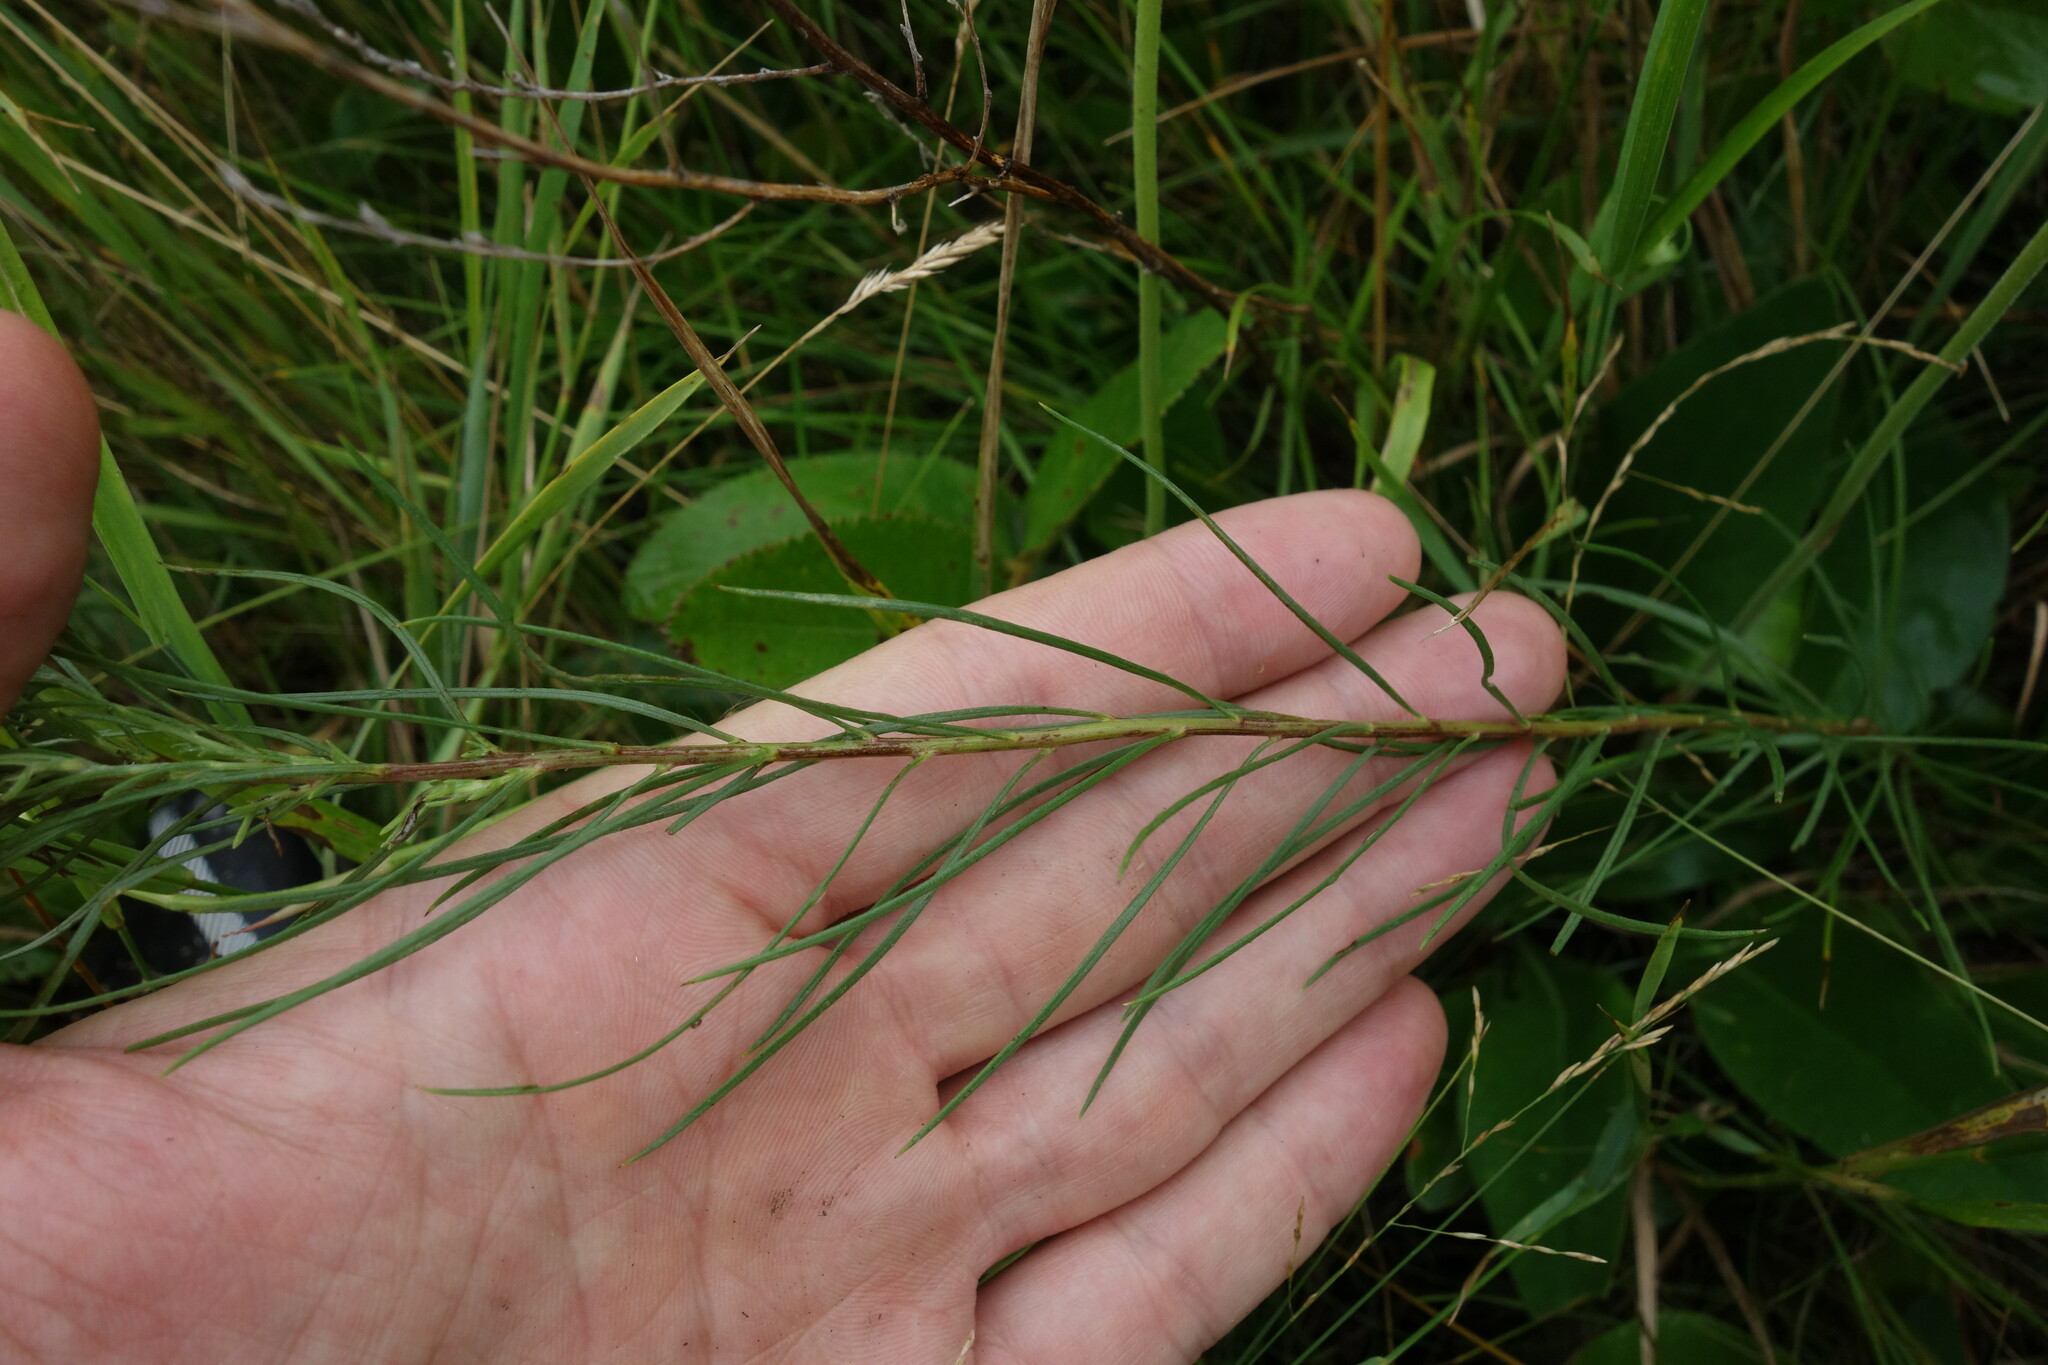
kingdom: Plantae
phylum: Tracheophyta
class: Magnoliopsida
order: Asterales
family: Asteraceae
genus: Galatella
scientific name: Galatella linosyris
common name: Goldilocks aster
